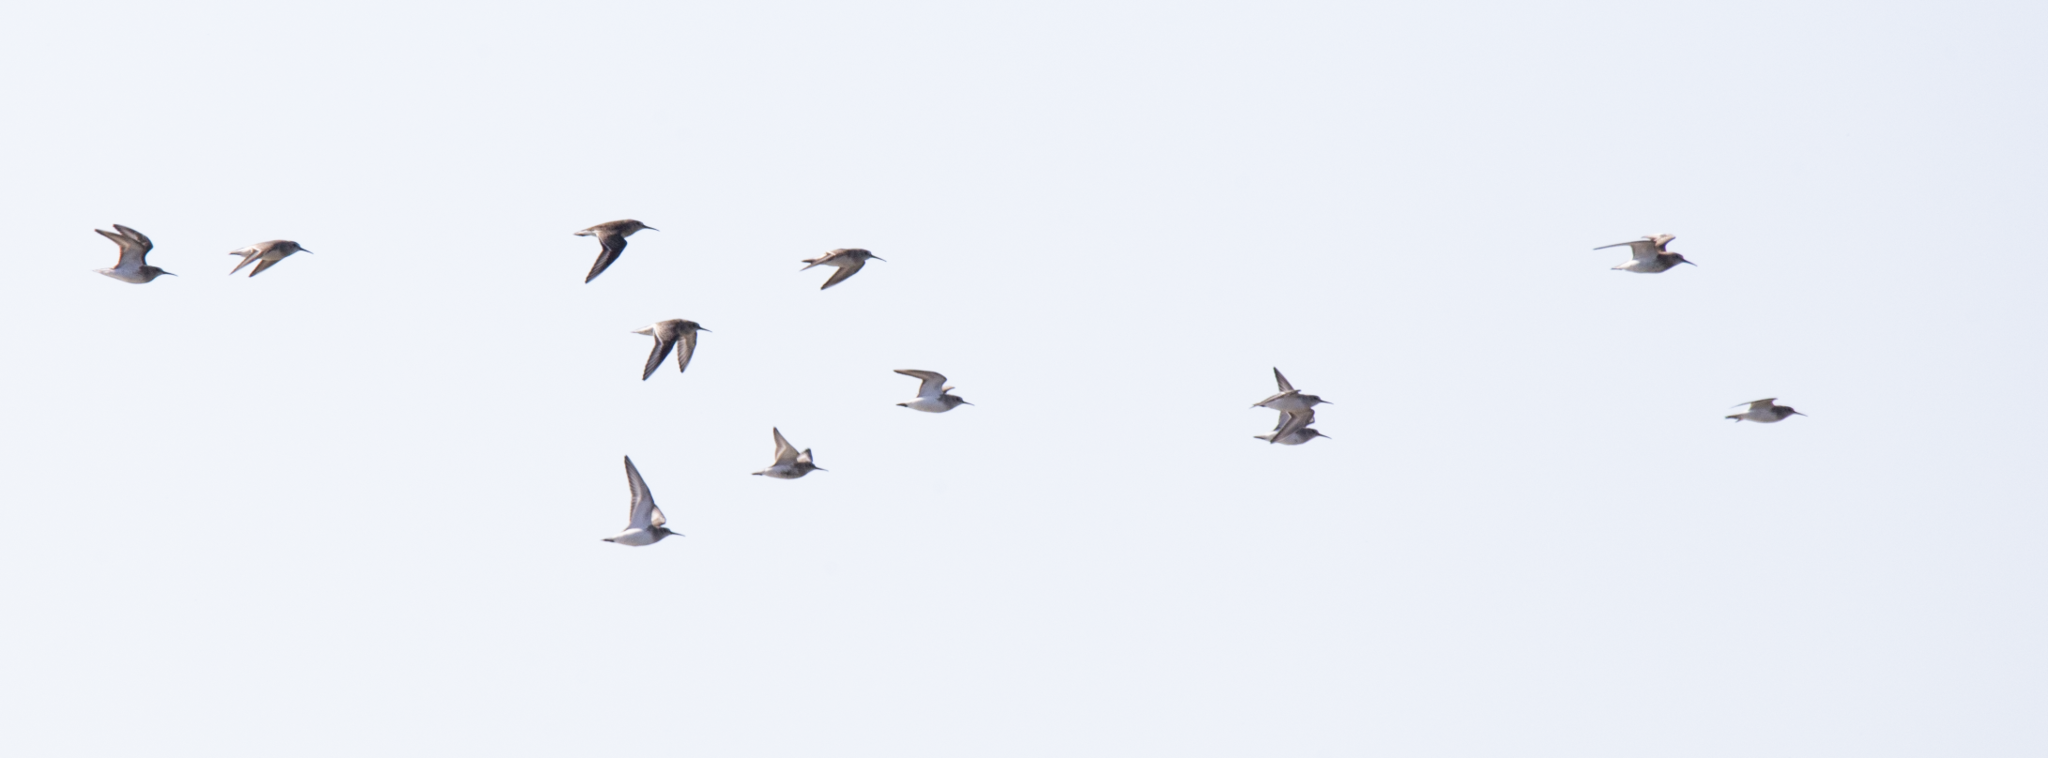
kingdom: Animalia
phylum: Chordata
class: Aves
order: Charadriiformes
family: Scolopacidae
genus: Calidris
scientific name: Calidris alpina
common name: Dunlin
